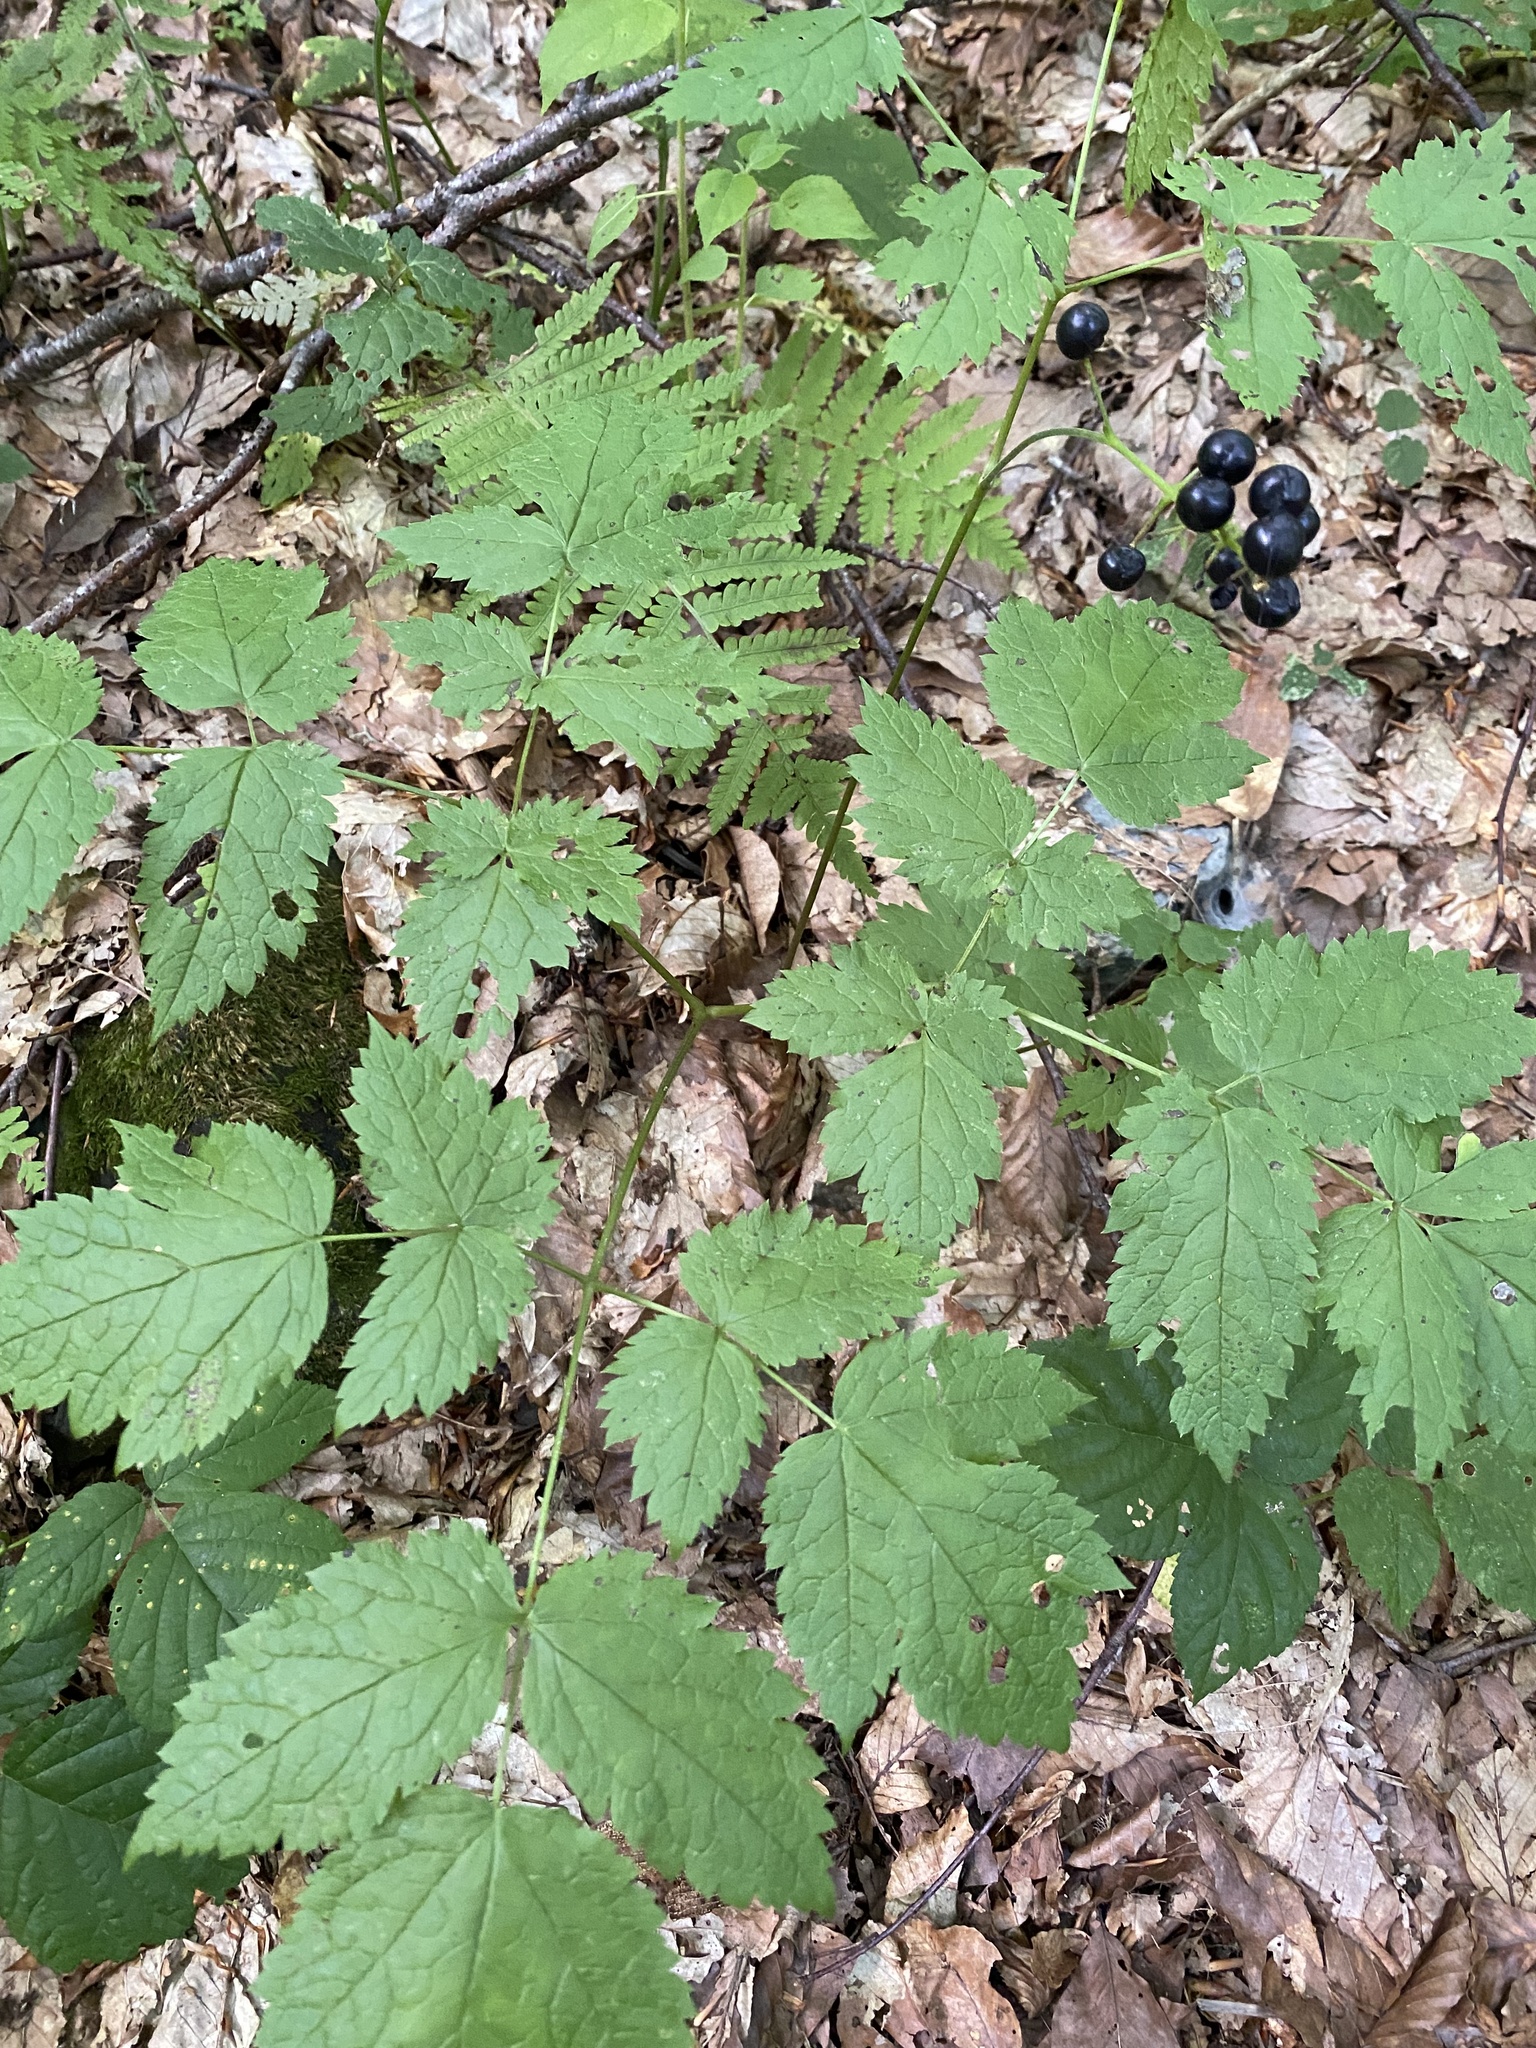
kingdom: Plantae
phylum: Tracheophyta
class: Magnoliopsida
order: Ranunculales
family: Ranunculaceae
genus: Actaea
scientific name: Actaea spicata
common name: Baneberry
